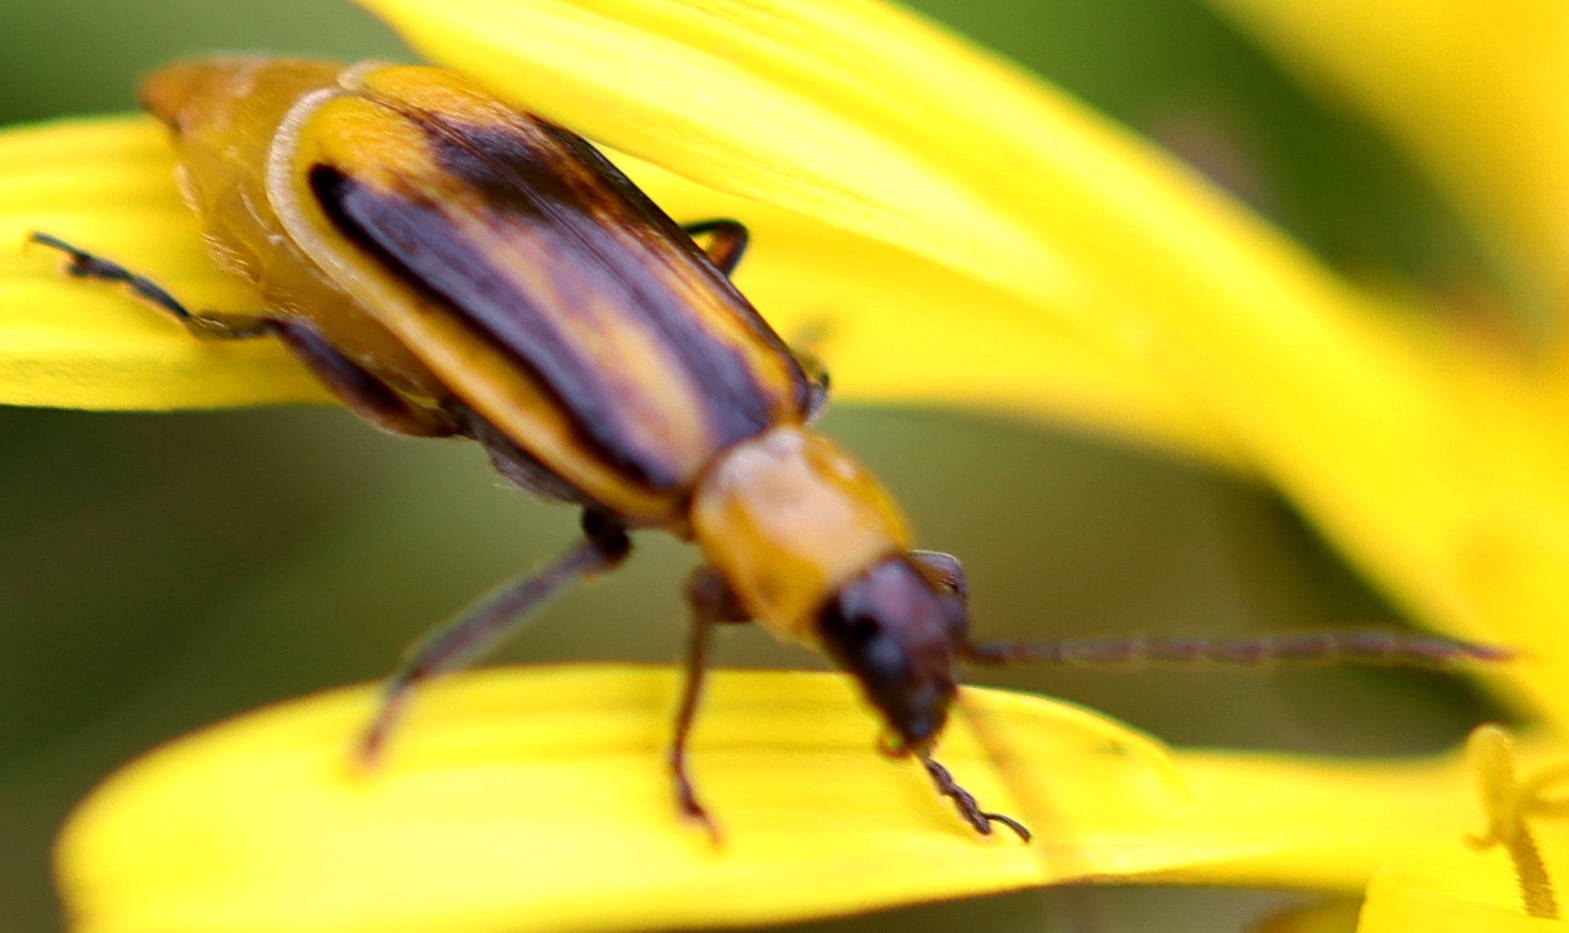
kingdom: Animalia
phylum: Arthropoda
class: Insecta
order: Coleoptera
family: Chrysomelidae
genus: Diabrotica
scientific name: Diabrotica virgifera
